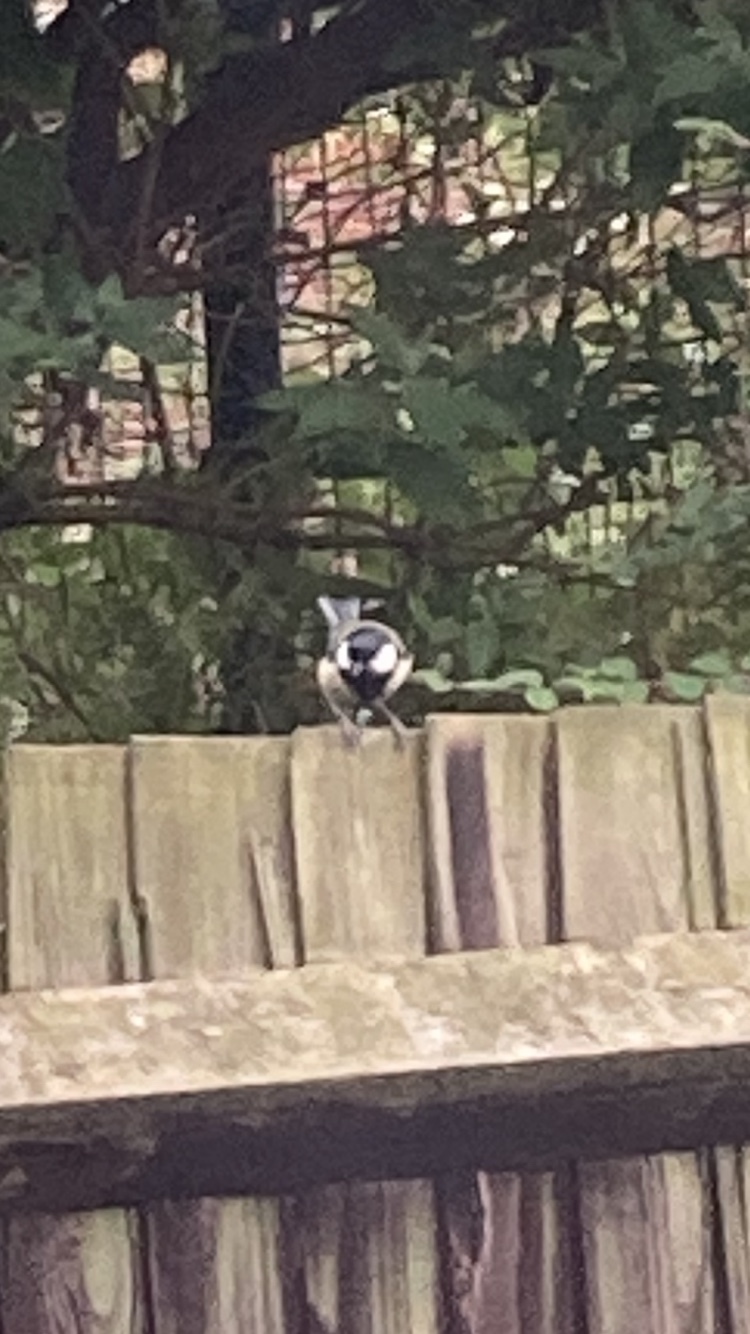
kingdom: Animalia
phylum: Chordata
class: Aves
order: Passeriformes
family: Paridae
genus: Parus
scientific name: Parus major
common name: Great tit
